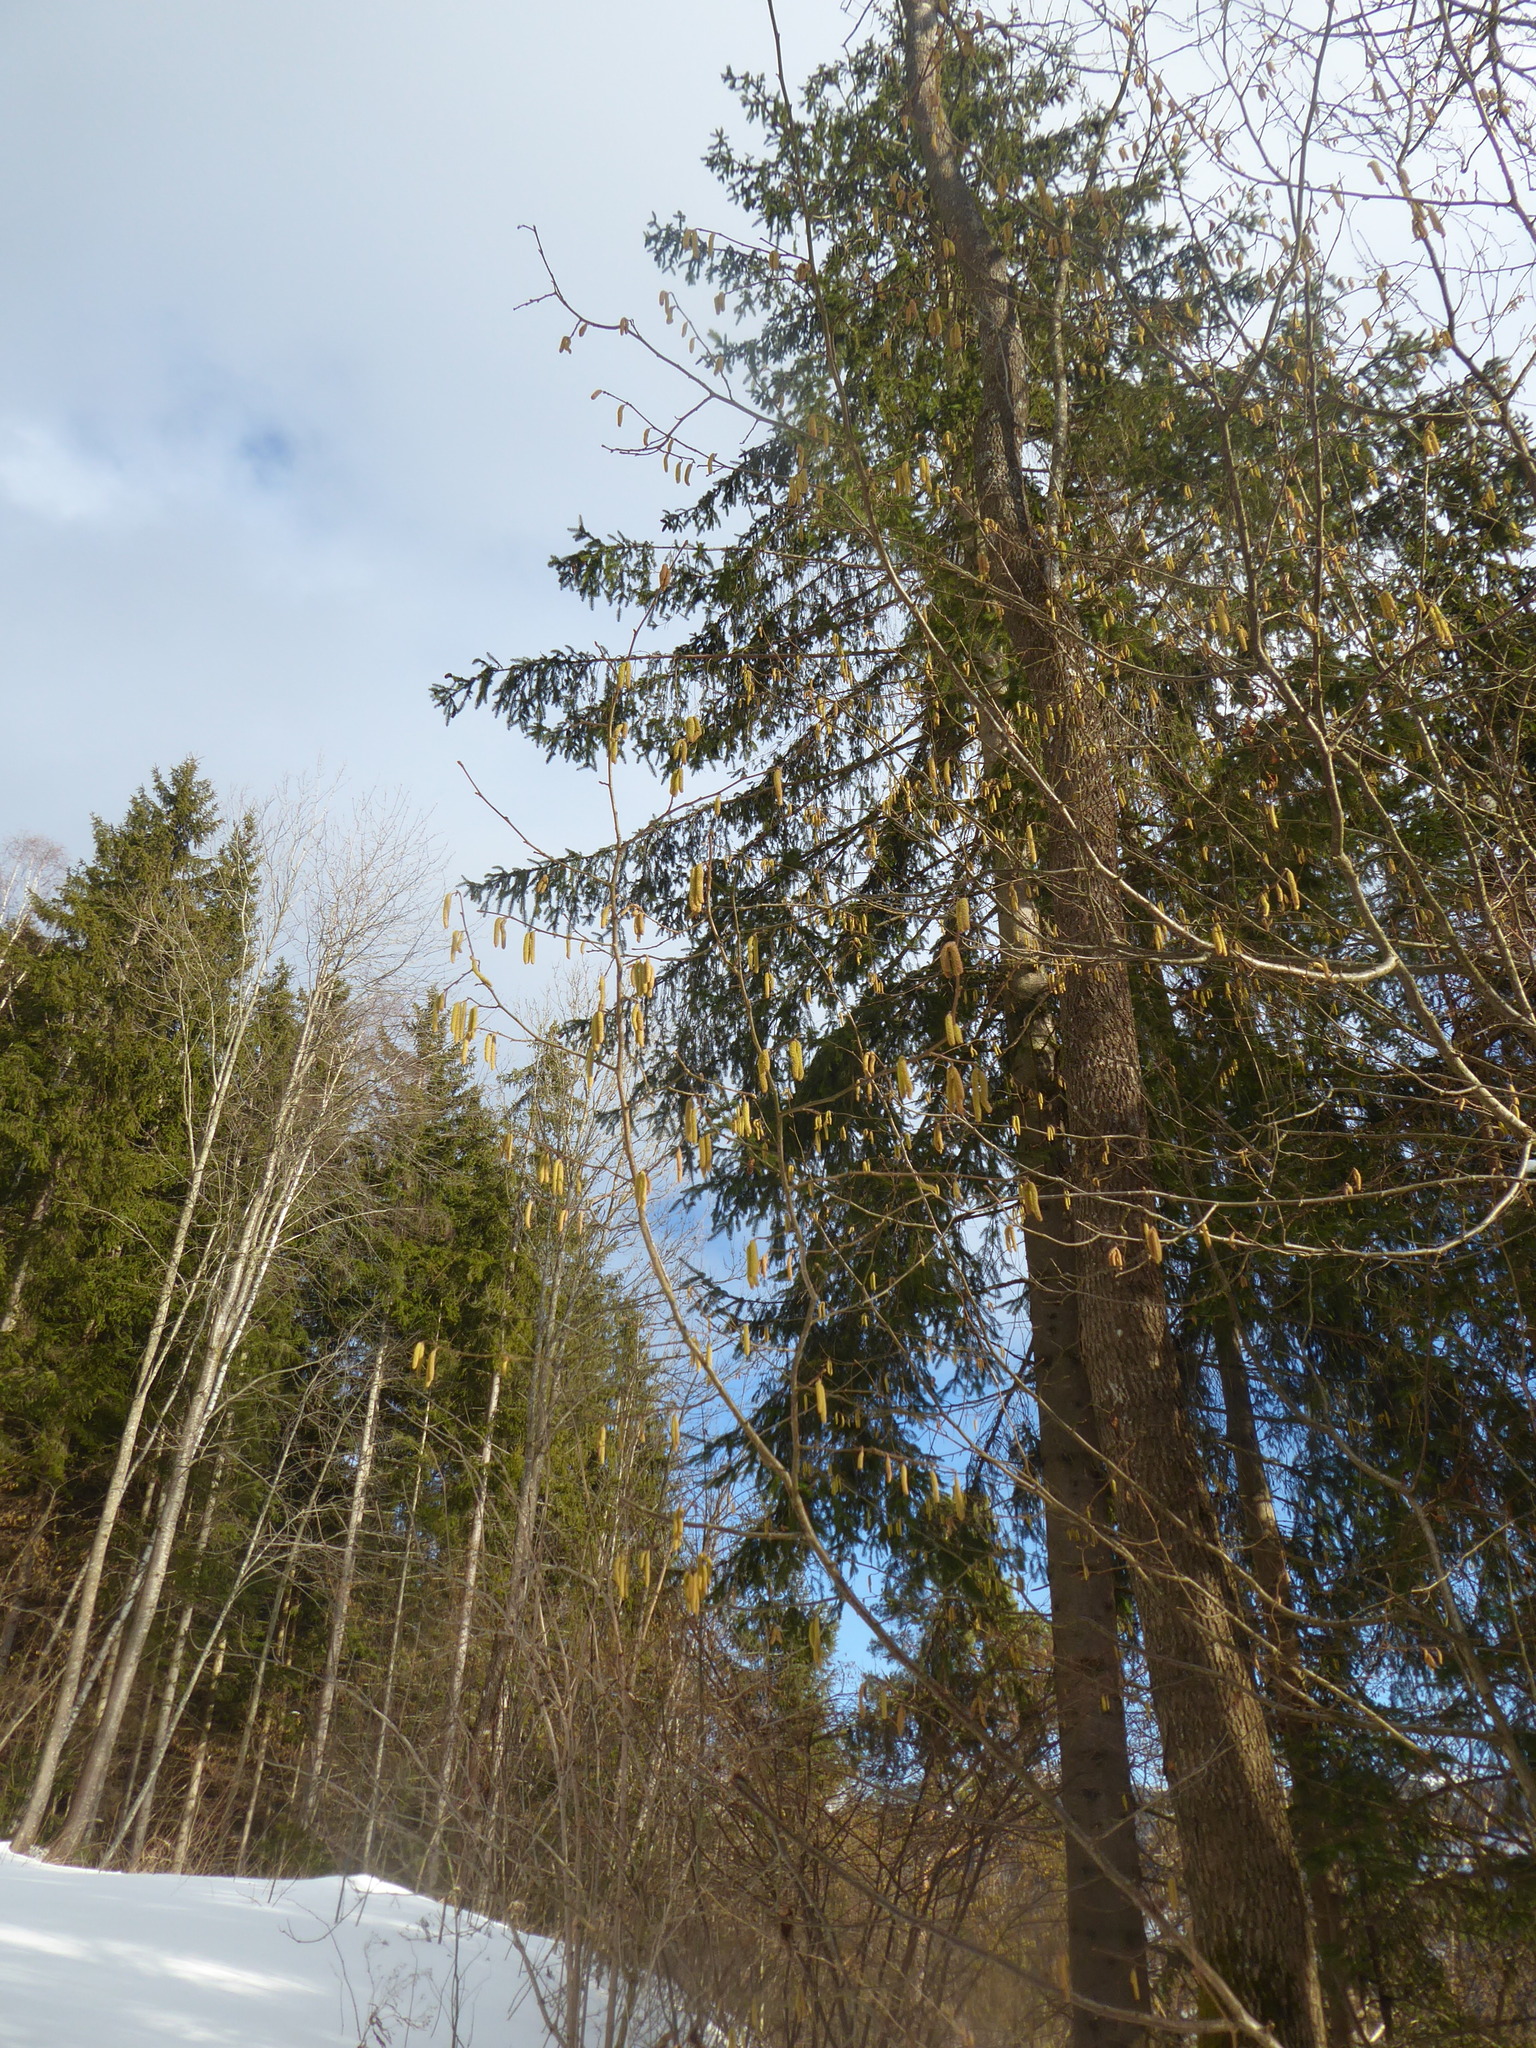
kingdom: Plantae
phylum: Tracheophyta
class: Magnoliopsida
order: Fagales
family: Betulaceae
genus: Corylus
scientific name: Corylus avellana
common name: European hazel
